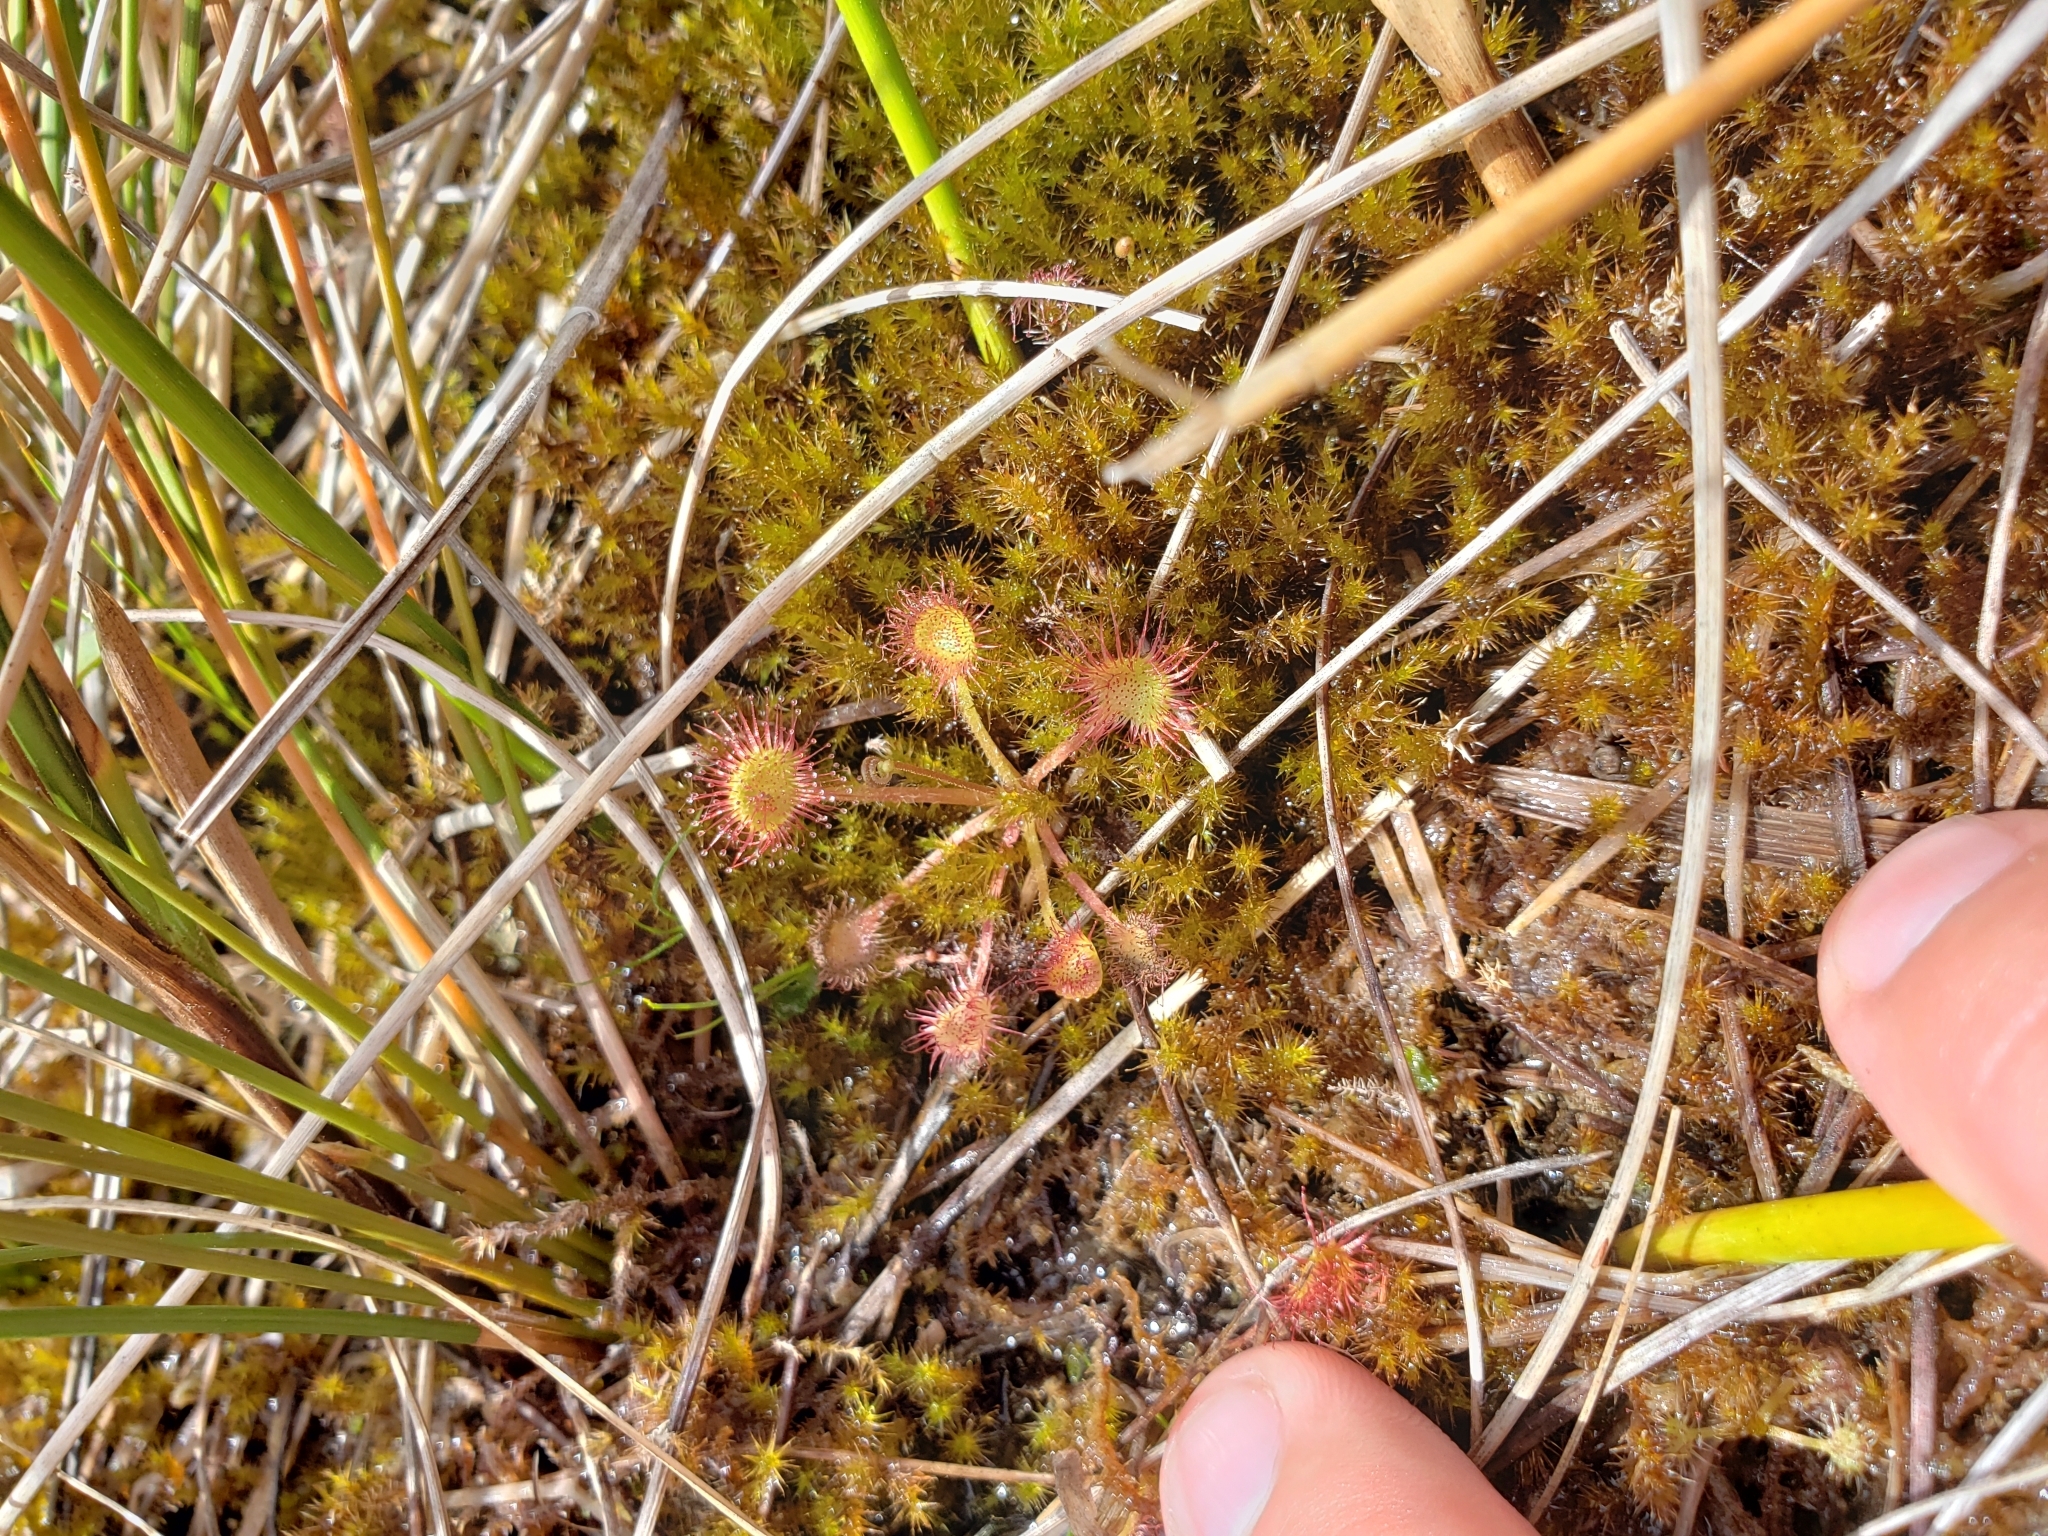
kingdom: Plantae
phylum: Tracheophyta
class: Magnoliopsida
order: Caryophyllales
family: Droseraceae
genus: Drosera
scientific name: Drosera rotundifolia
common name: Round-leaved sundew
